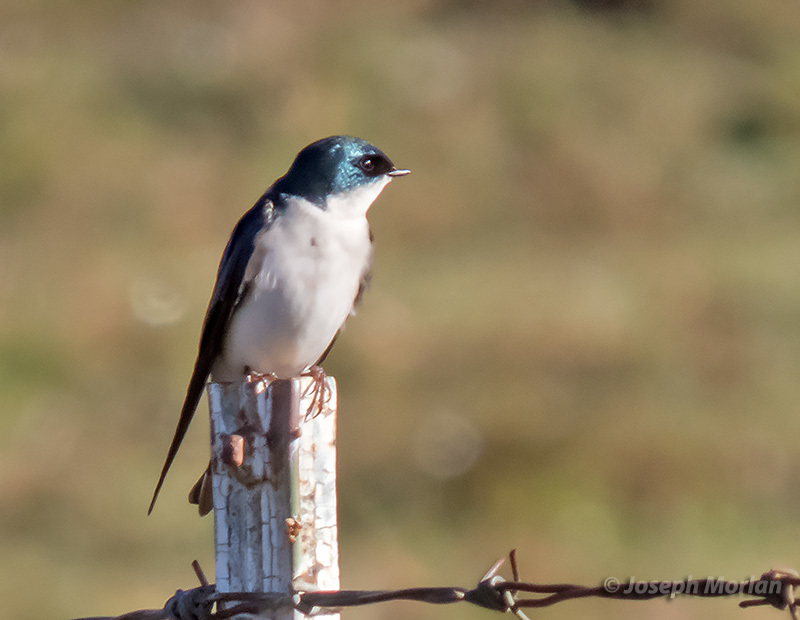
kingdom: Animalia
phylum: Chordata
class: Aves
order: Passeriformes
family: Hirundinidae
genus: Tachycineta
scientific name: Tachycineta bicolor
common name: Tree swallow
